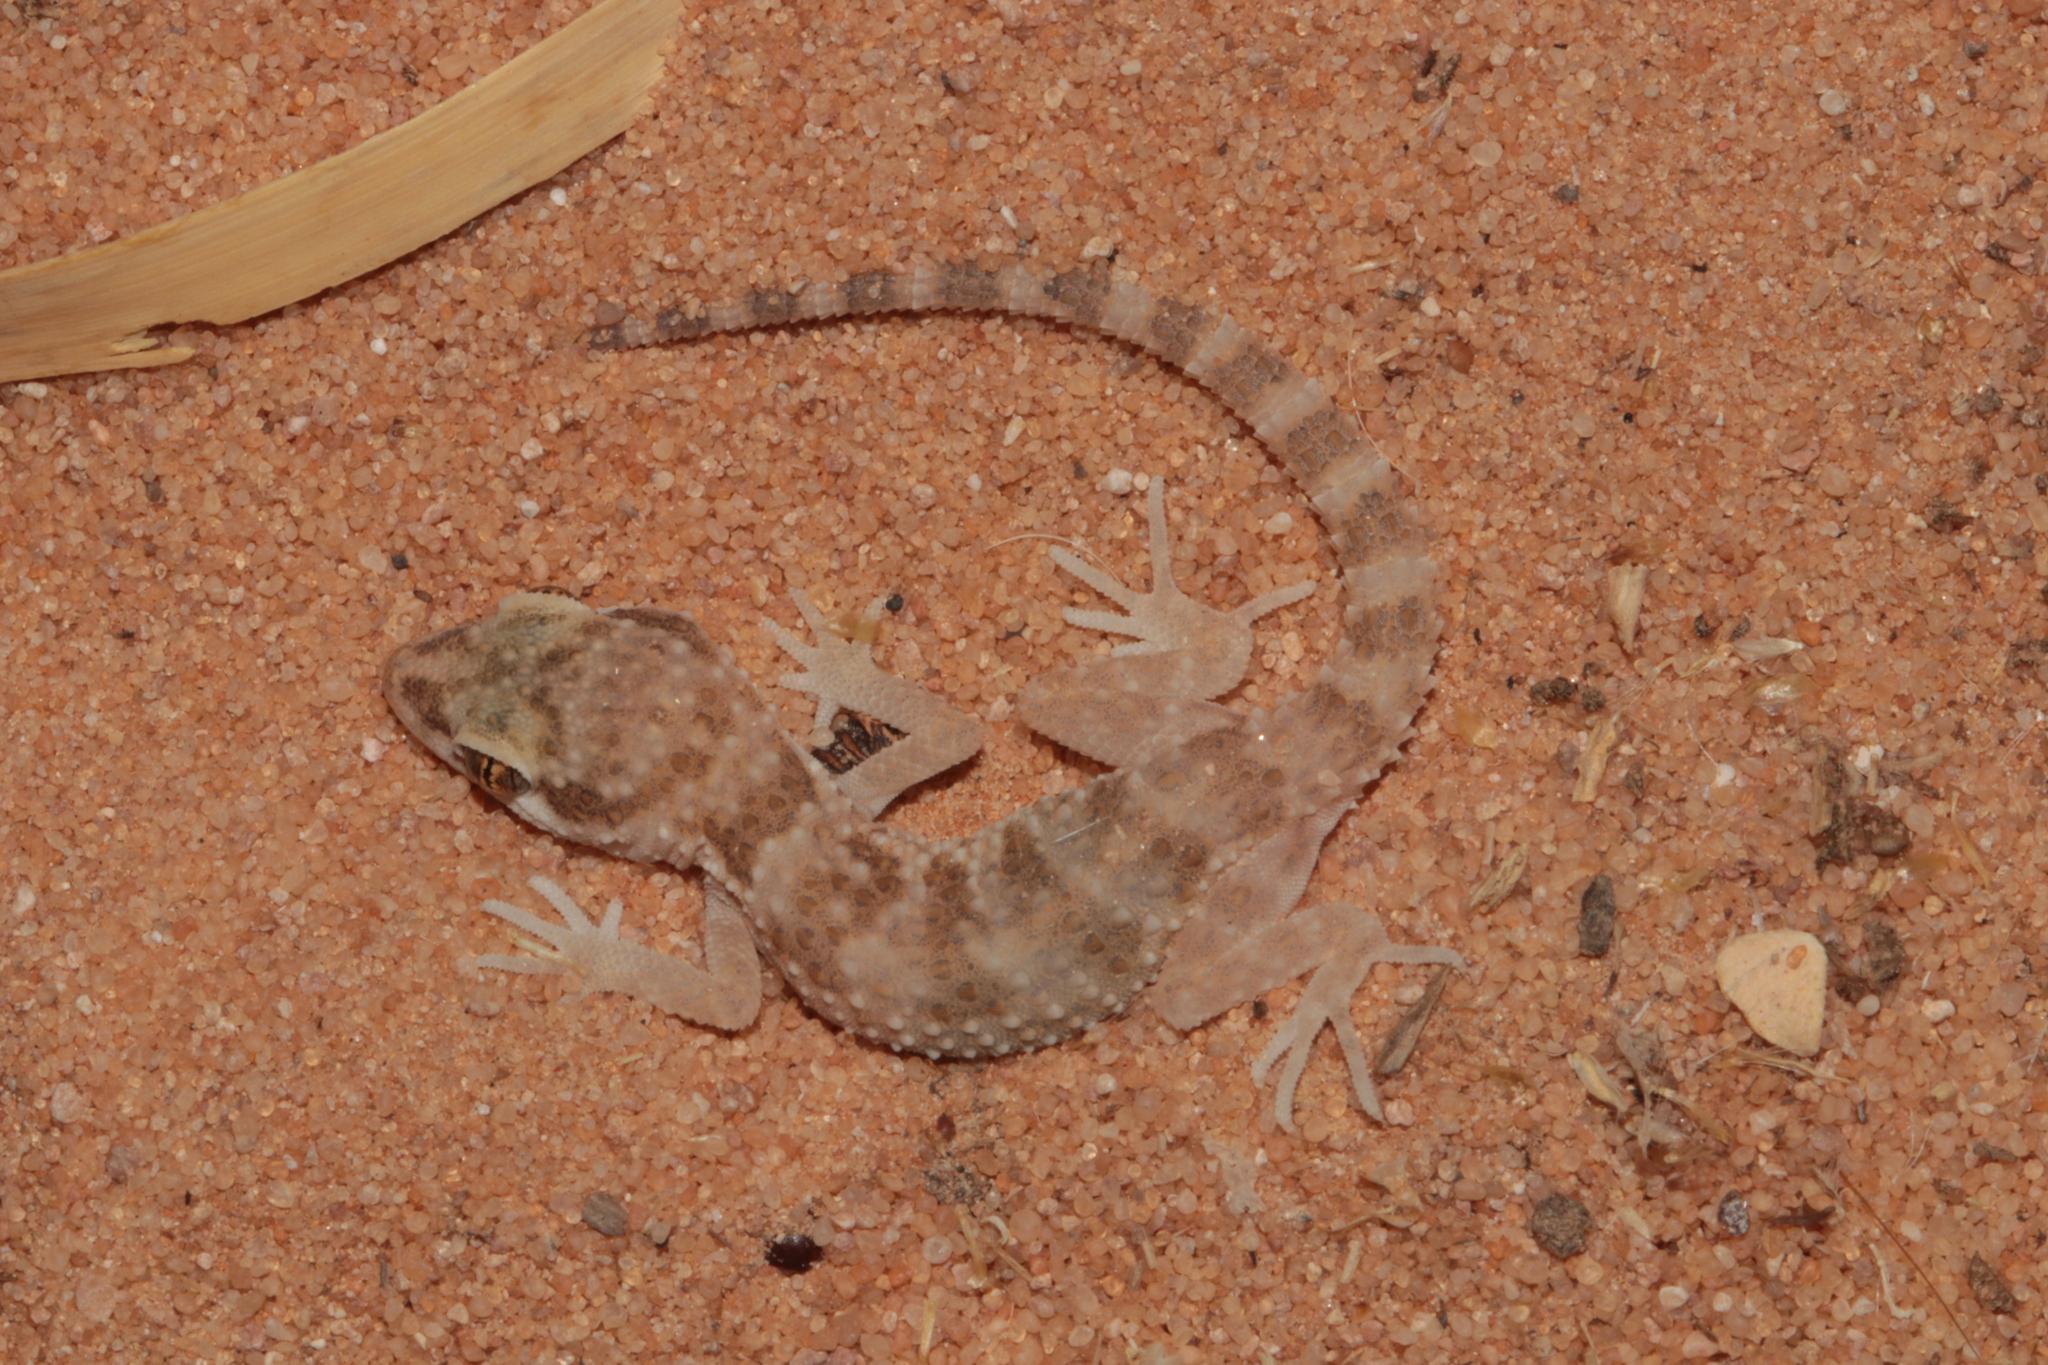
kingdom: Animalia
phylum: Chordata
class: Squamata
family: Gekkonidae
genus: Bunopus
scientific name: Bunopus tuberculatus
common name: Southern tuberculated gecko
